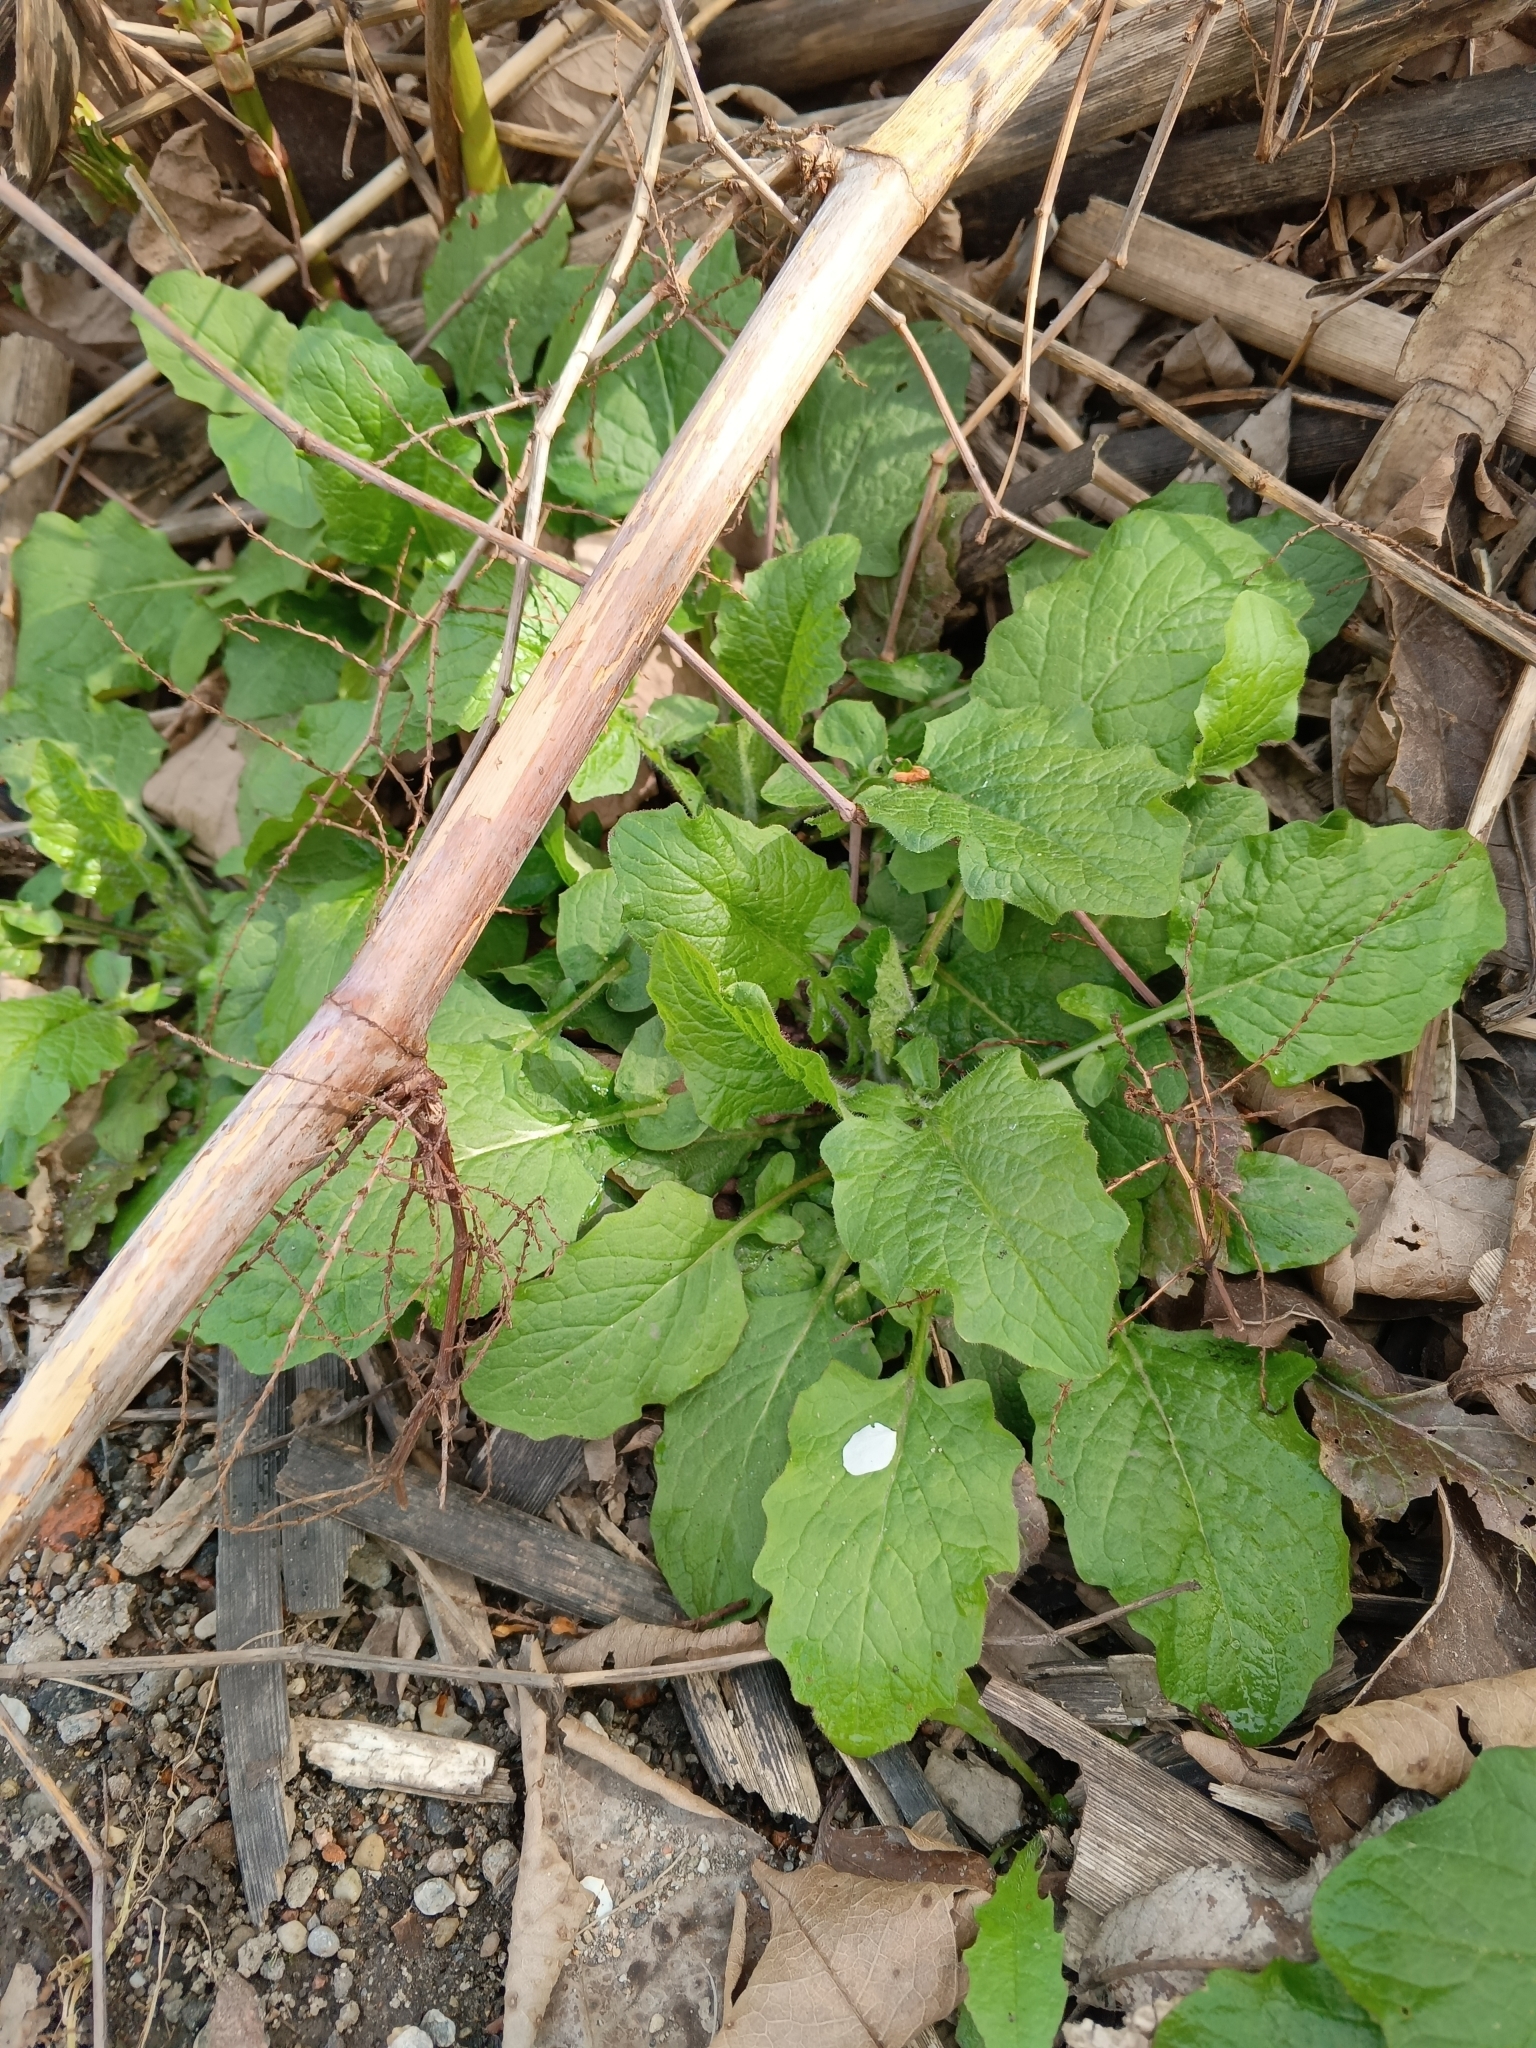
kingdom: Plantae
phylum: Tracheophyta
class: Magnoliopsida
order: Asterales
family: Asteraceae
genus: Lapsana
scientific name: Lapsana communis
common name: Nipplewort
